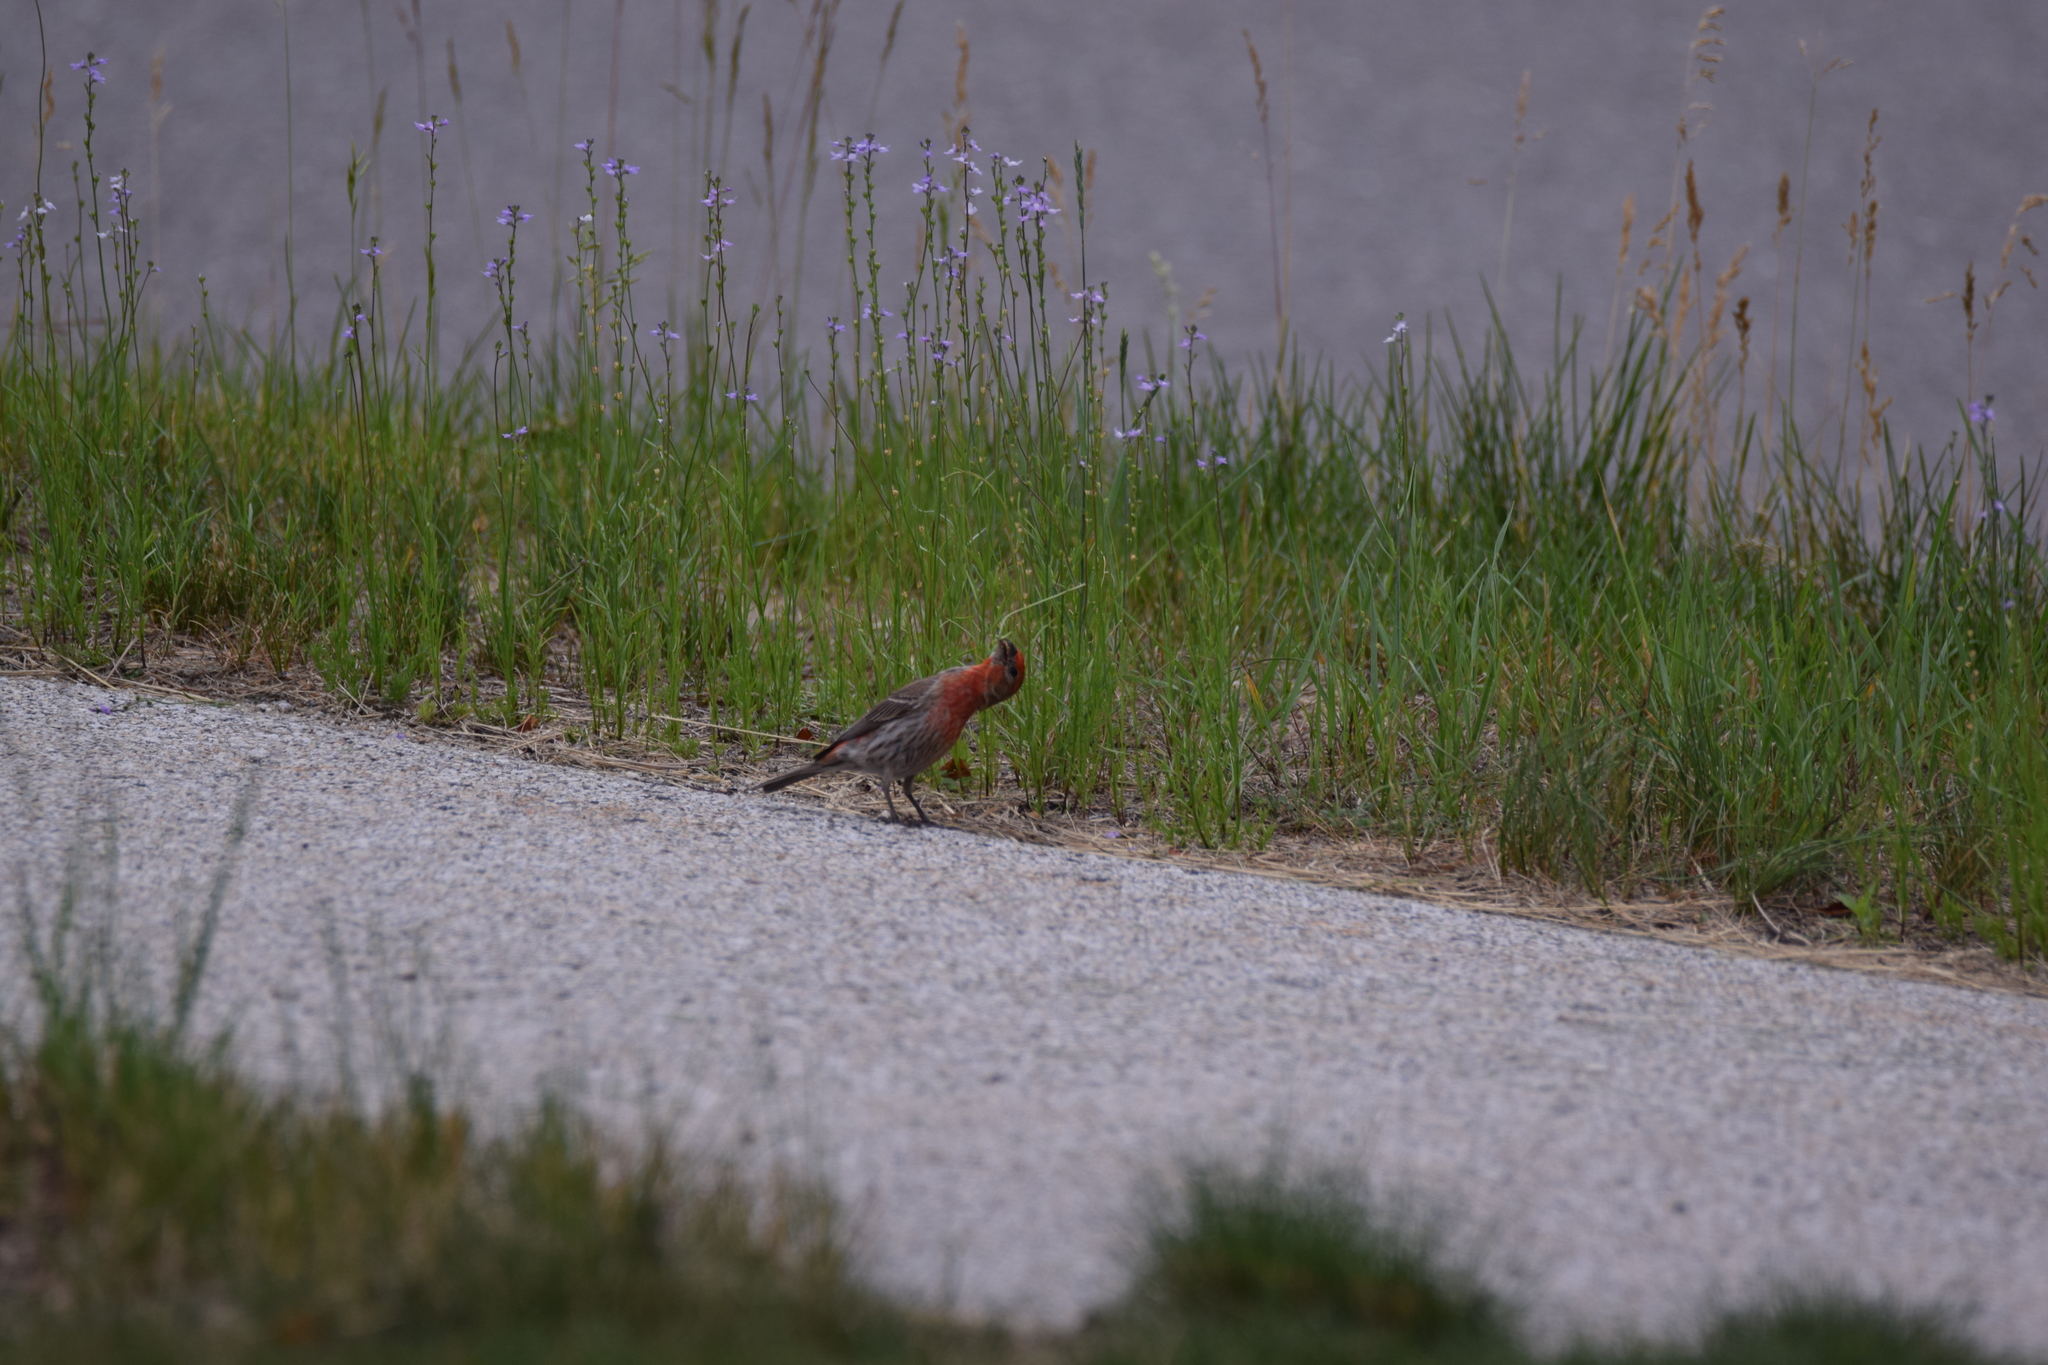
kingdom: Animalia
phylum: Chordata
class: Aves
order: Passeriformes
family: Fringillidae
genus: Haemorhous
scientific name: Haemorhous mexicanus
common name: House finch
